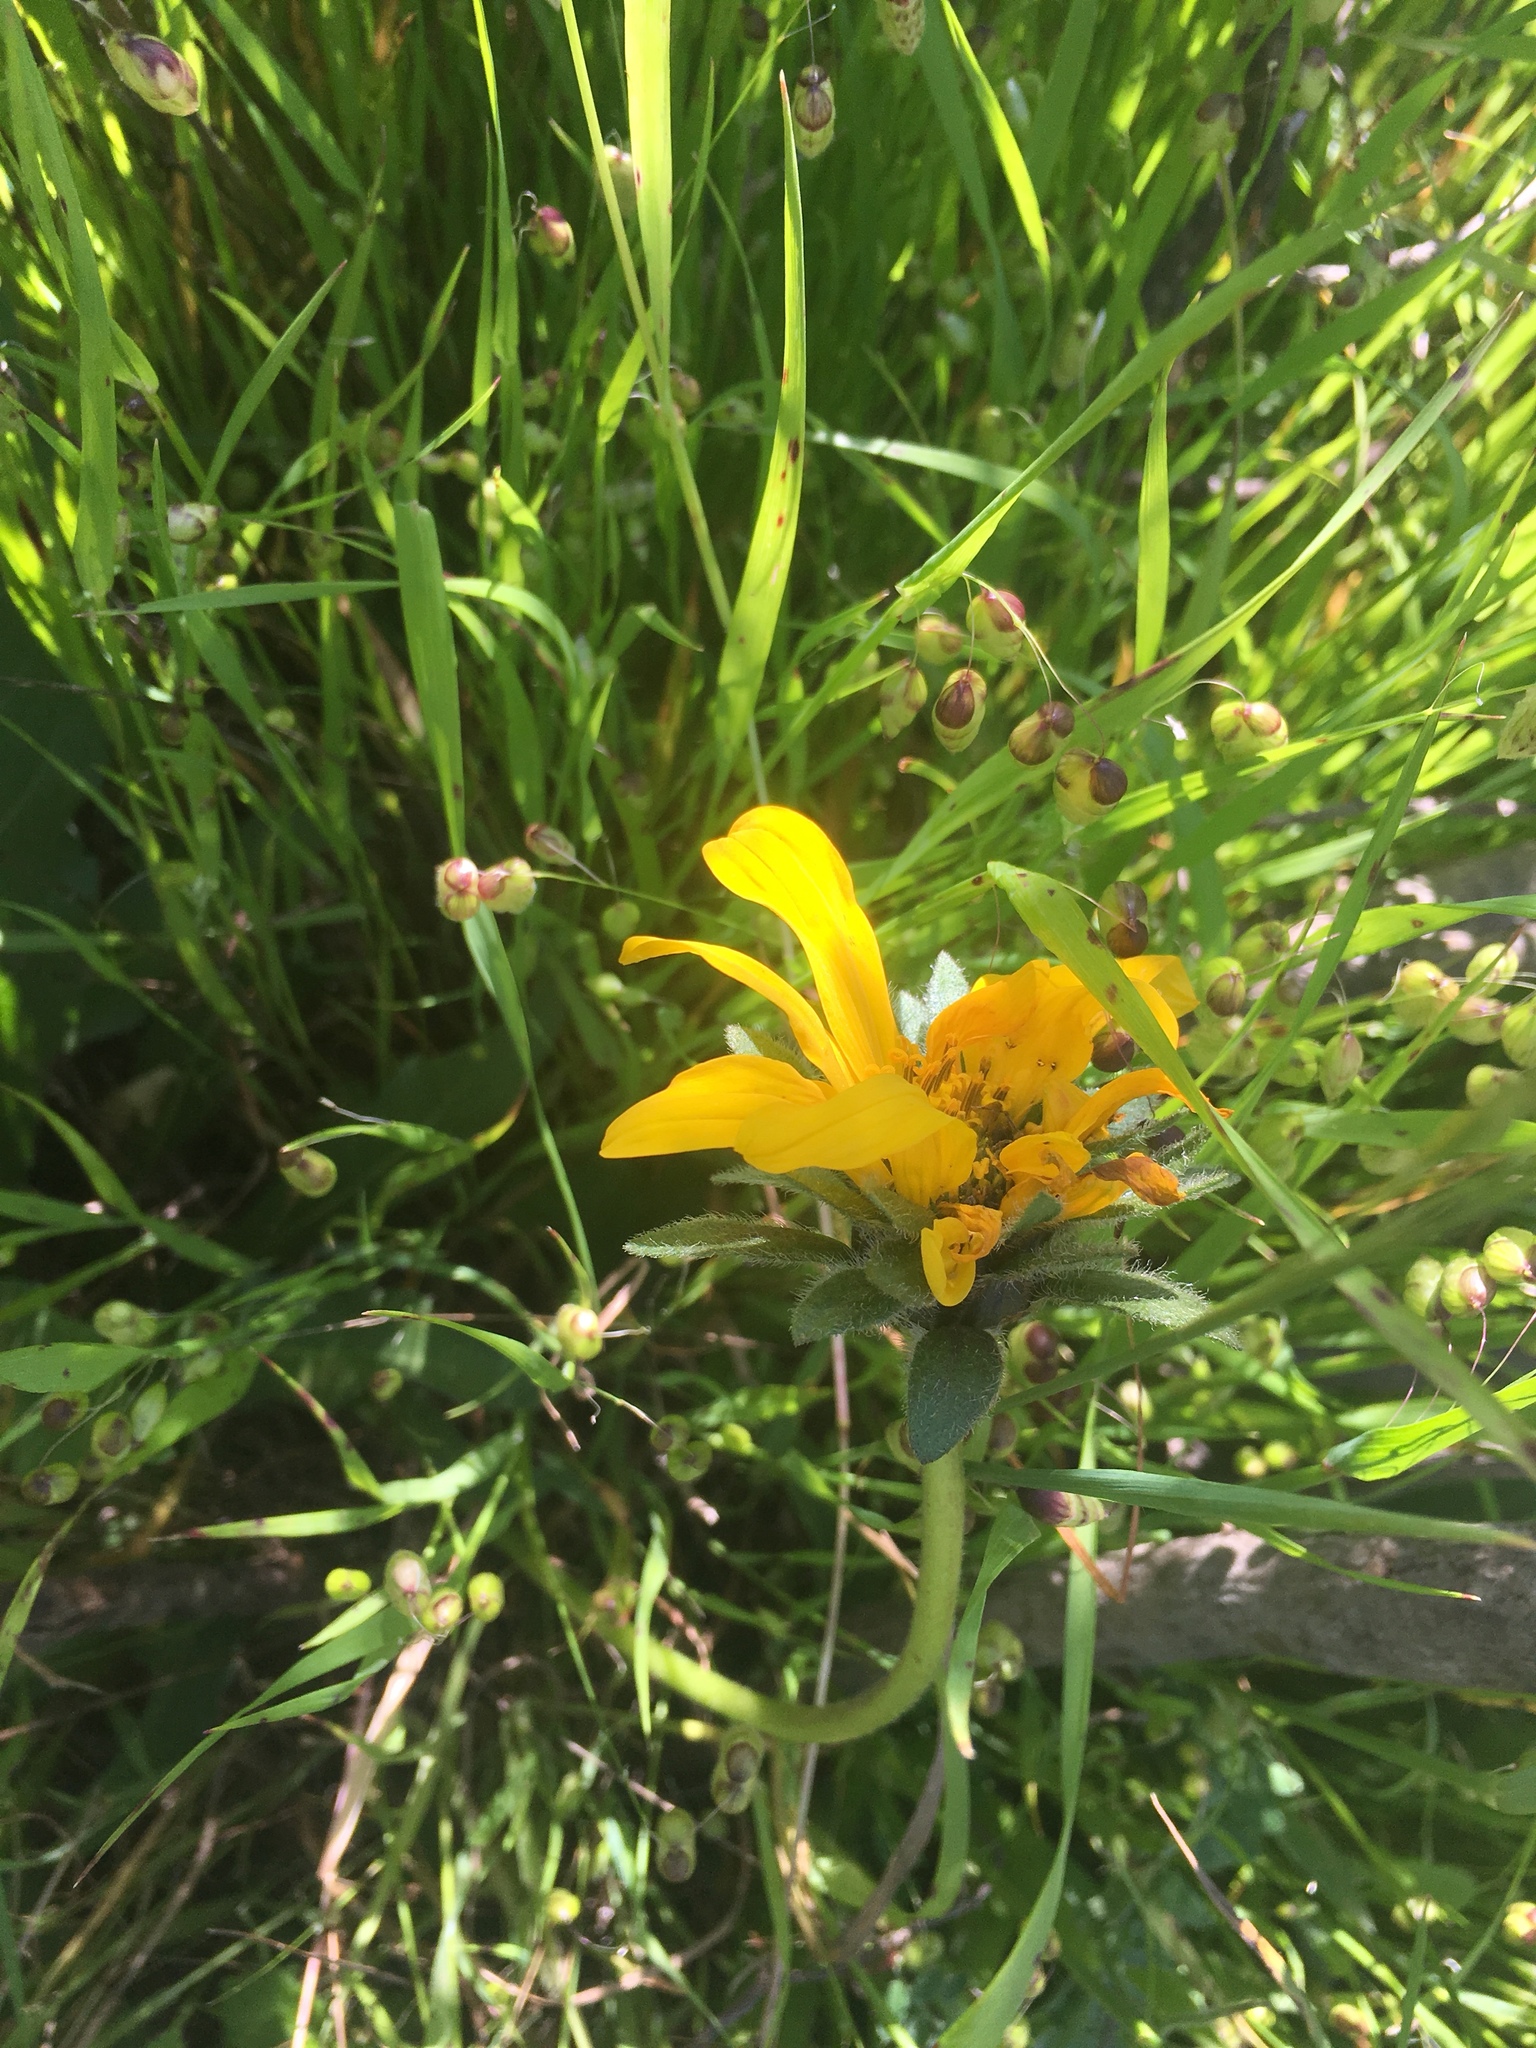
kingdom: Plantae
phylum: Tracheophyta
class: Magnoliopsida
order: Asterales
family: Asteraceae
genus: Wyethia
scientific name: Wyethia angustifolia
